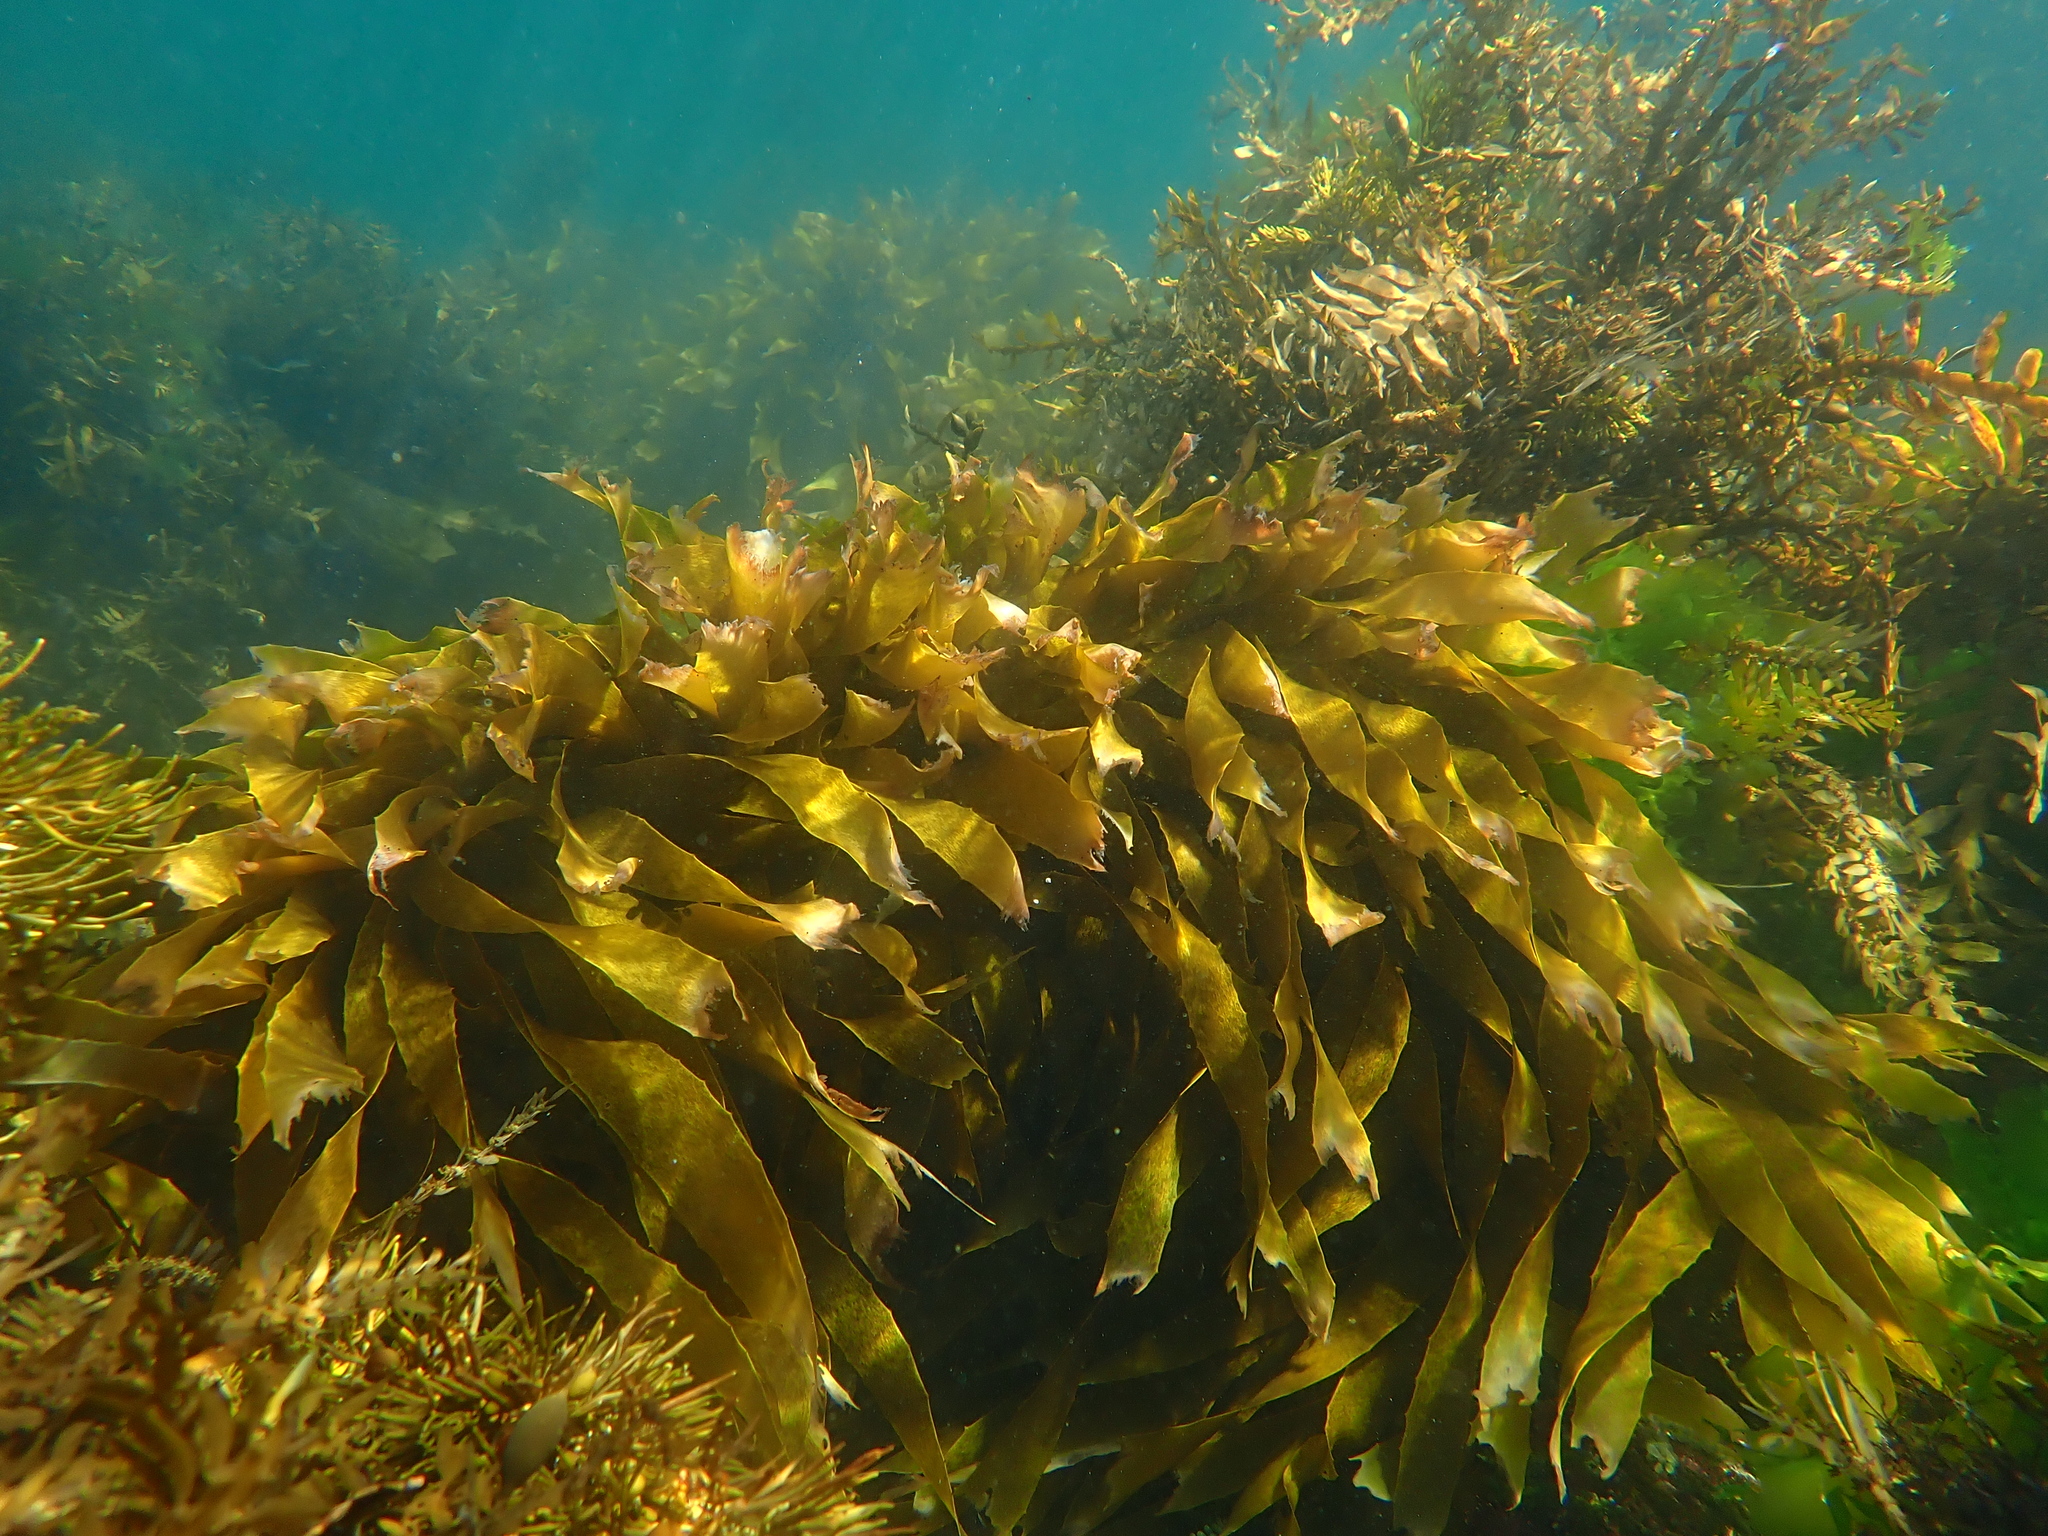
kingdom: Animalia
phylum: Chordata
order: Perciformes
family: Tripterygiidae
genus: Gilloblennius
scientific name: Gilloblennius abditus
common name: Obscure triplefin
